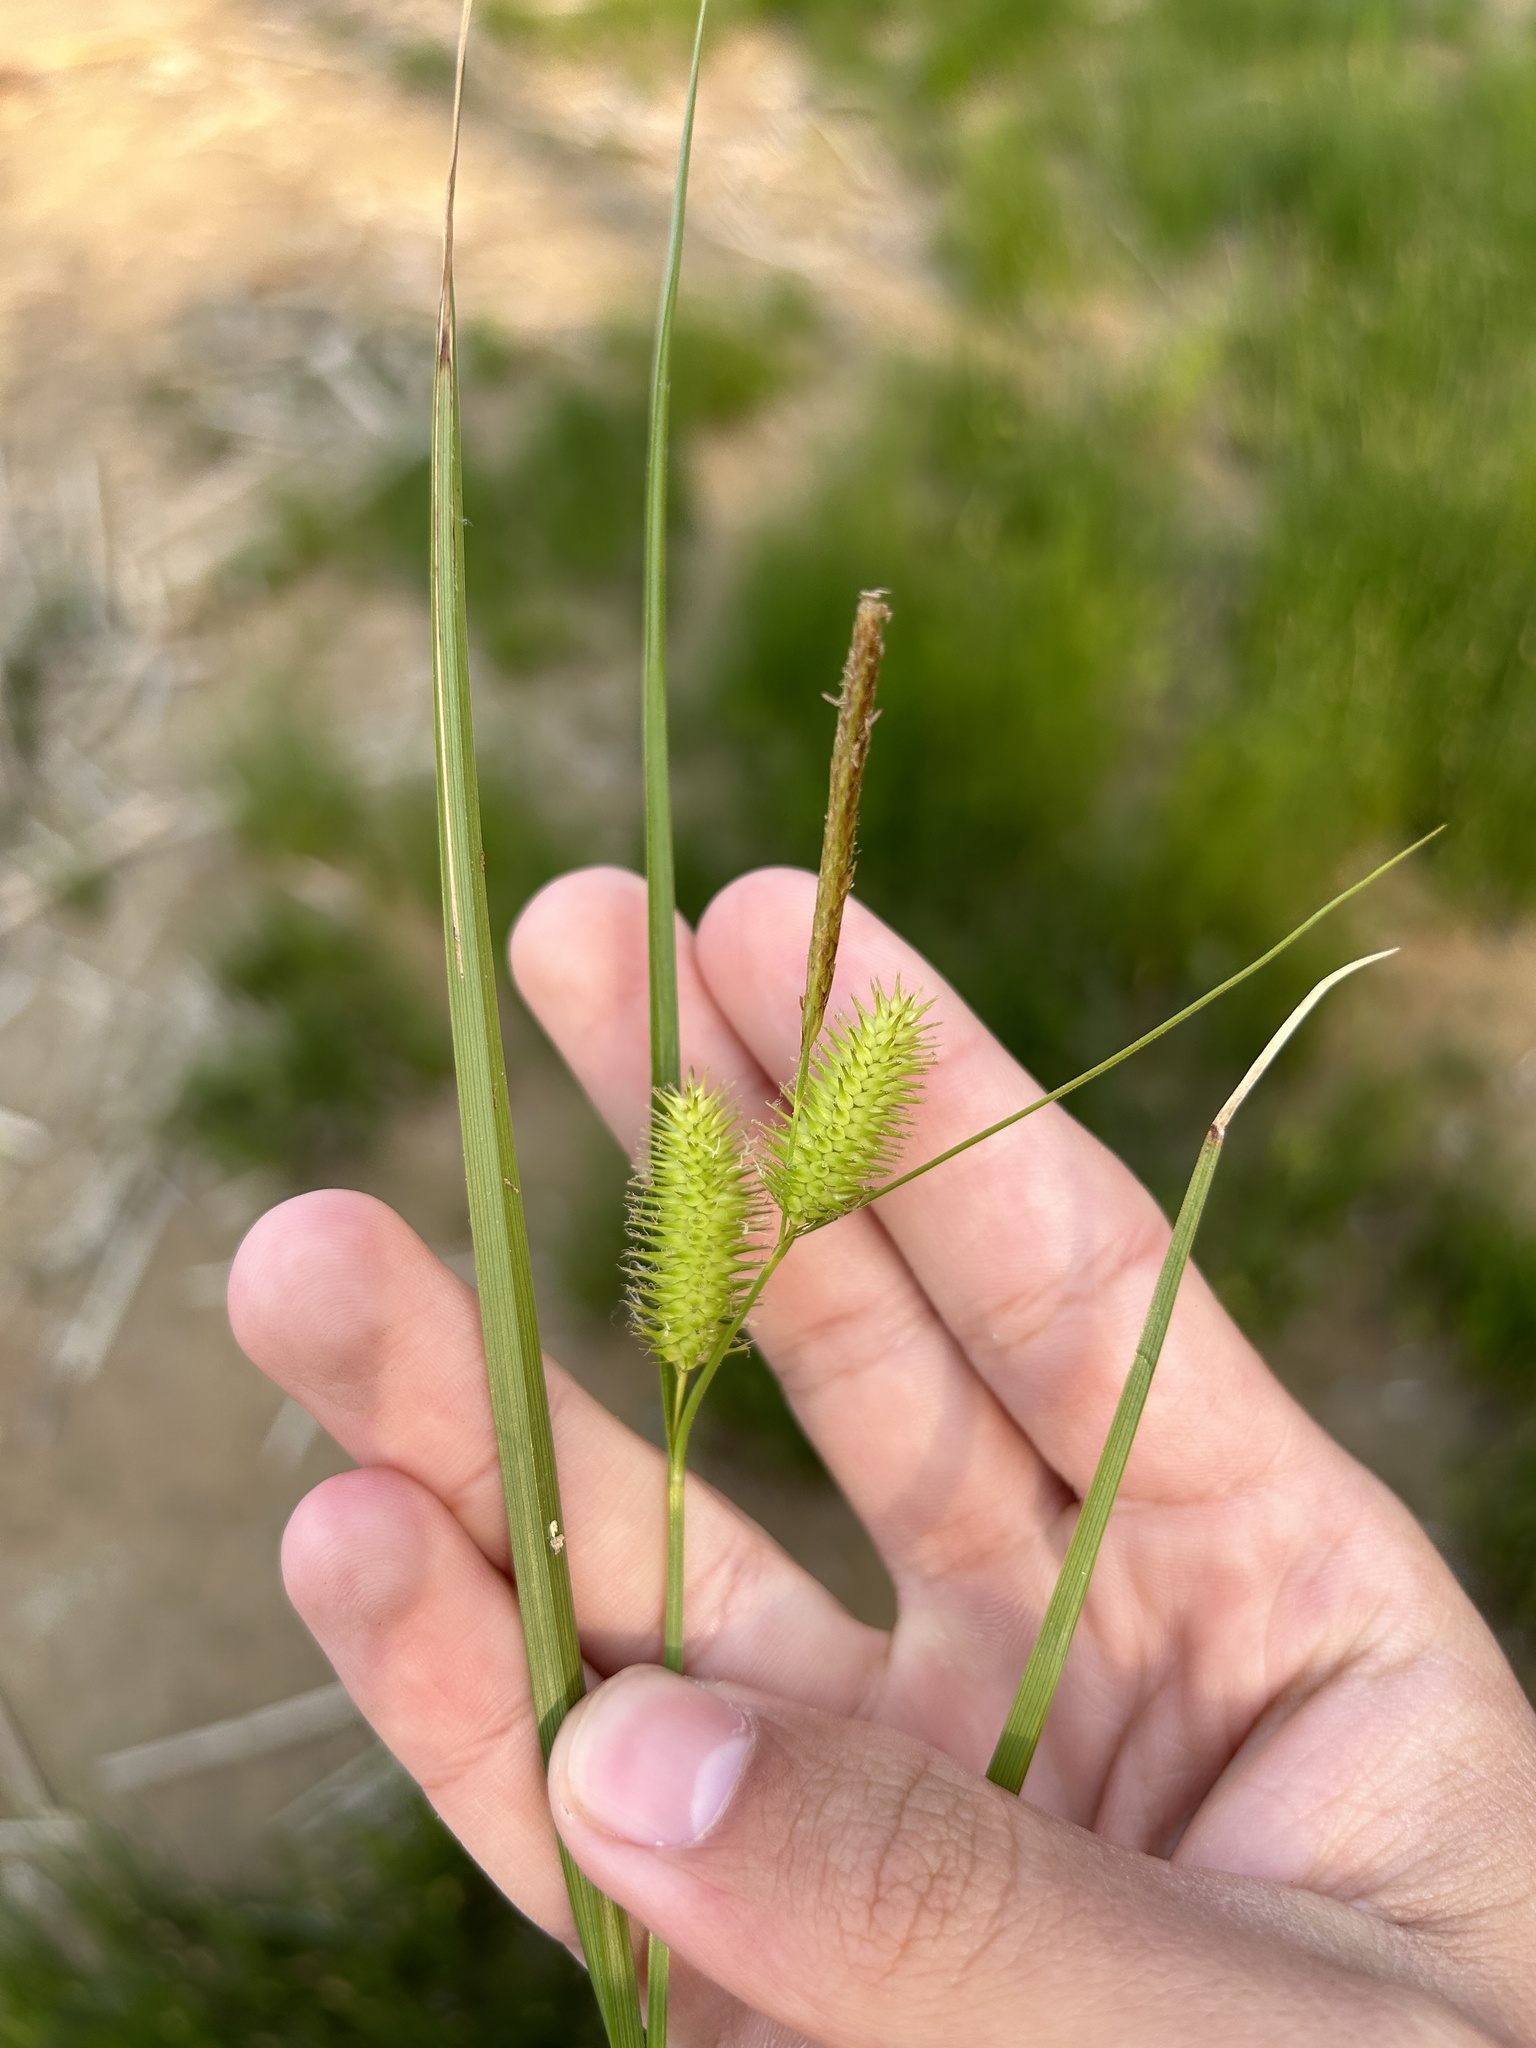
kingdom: Plantae
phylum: Tracheophyta
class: Liliopsida
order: Poales
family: Cyperaceae
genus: Carex
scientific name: Carex hystericina
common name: Bottlebrush sedge
